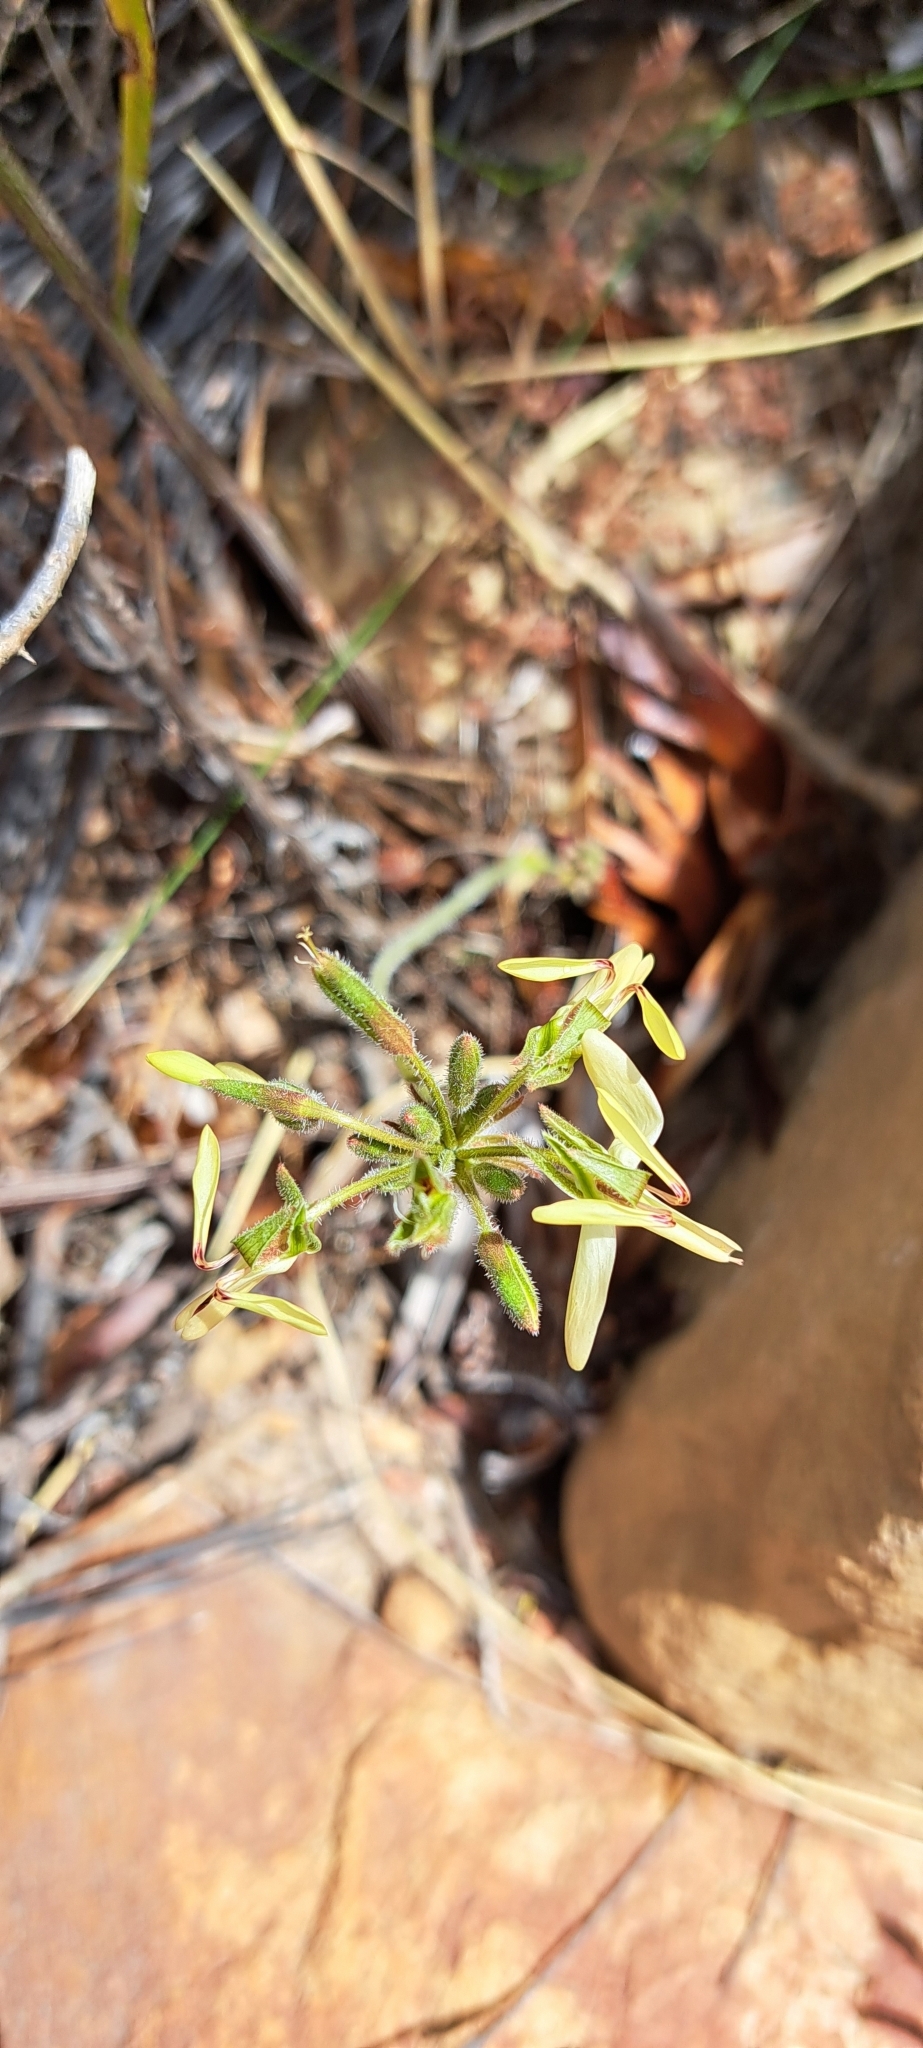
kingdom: Plantae
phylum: Tracheophyta
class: Magnoliopsida
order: Geraniales
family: Geraniaceae
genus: Pelargonium
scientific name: Pelargonium rapaceum
